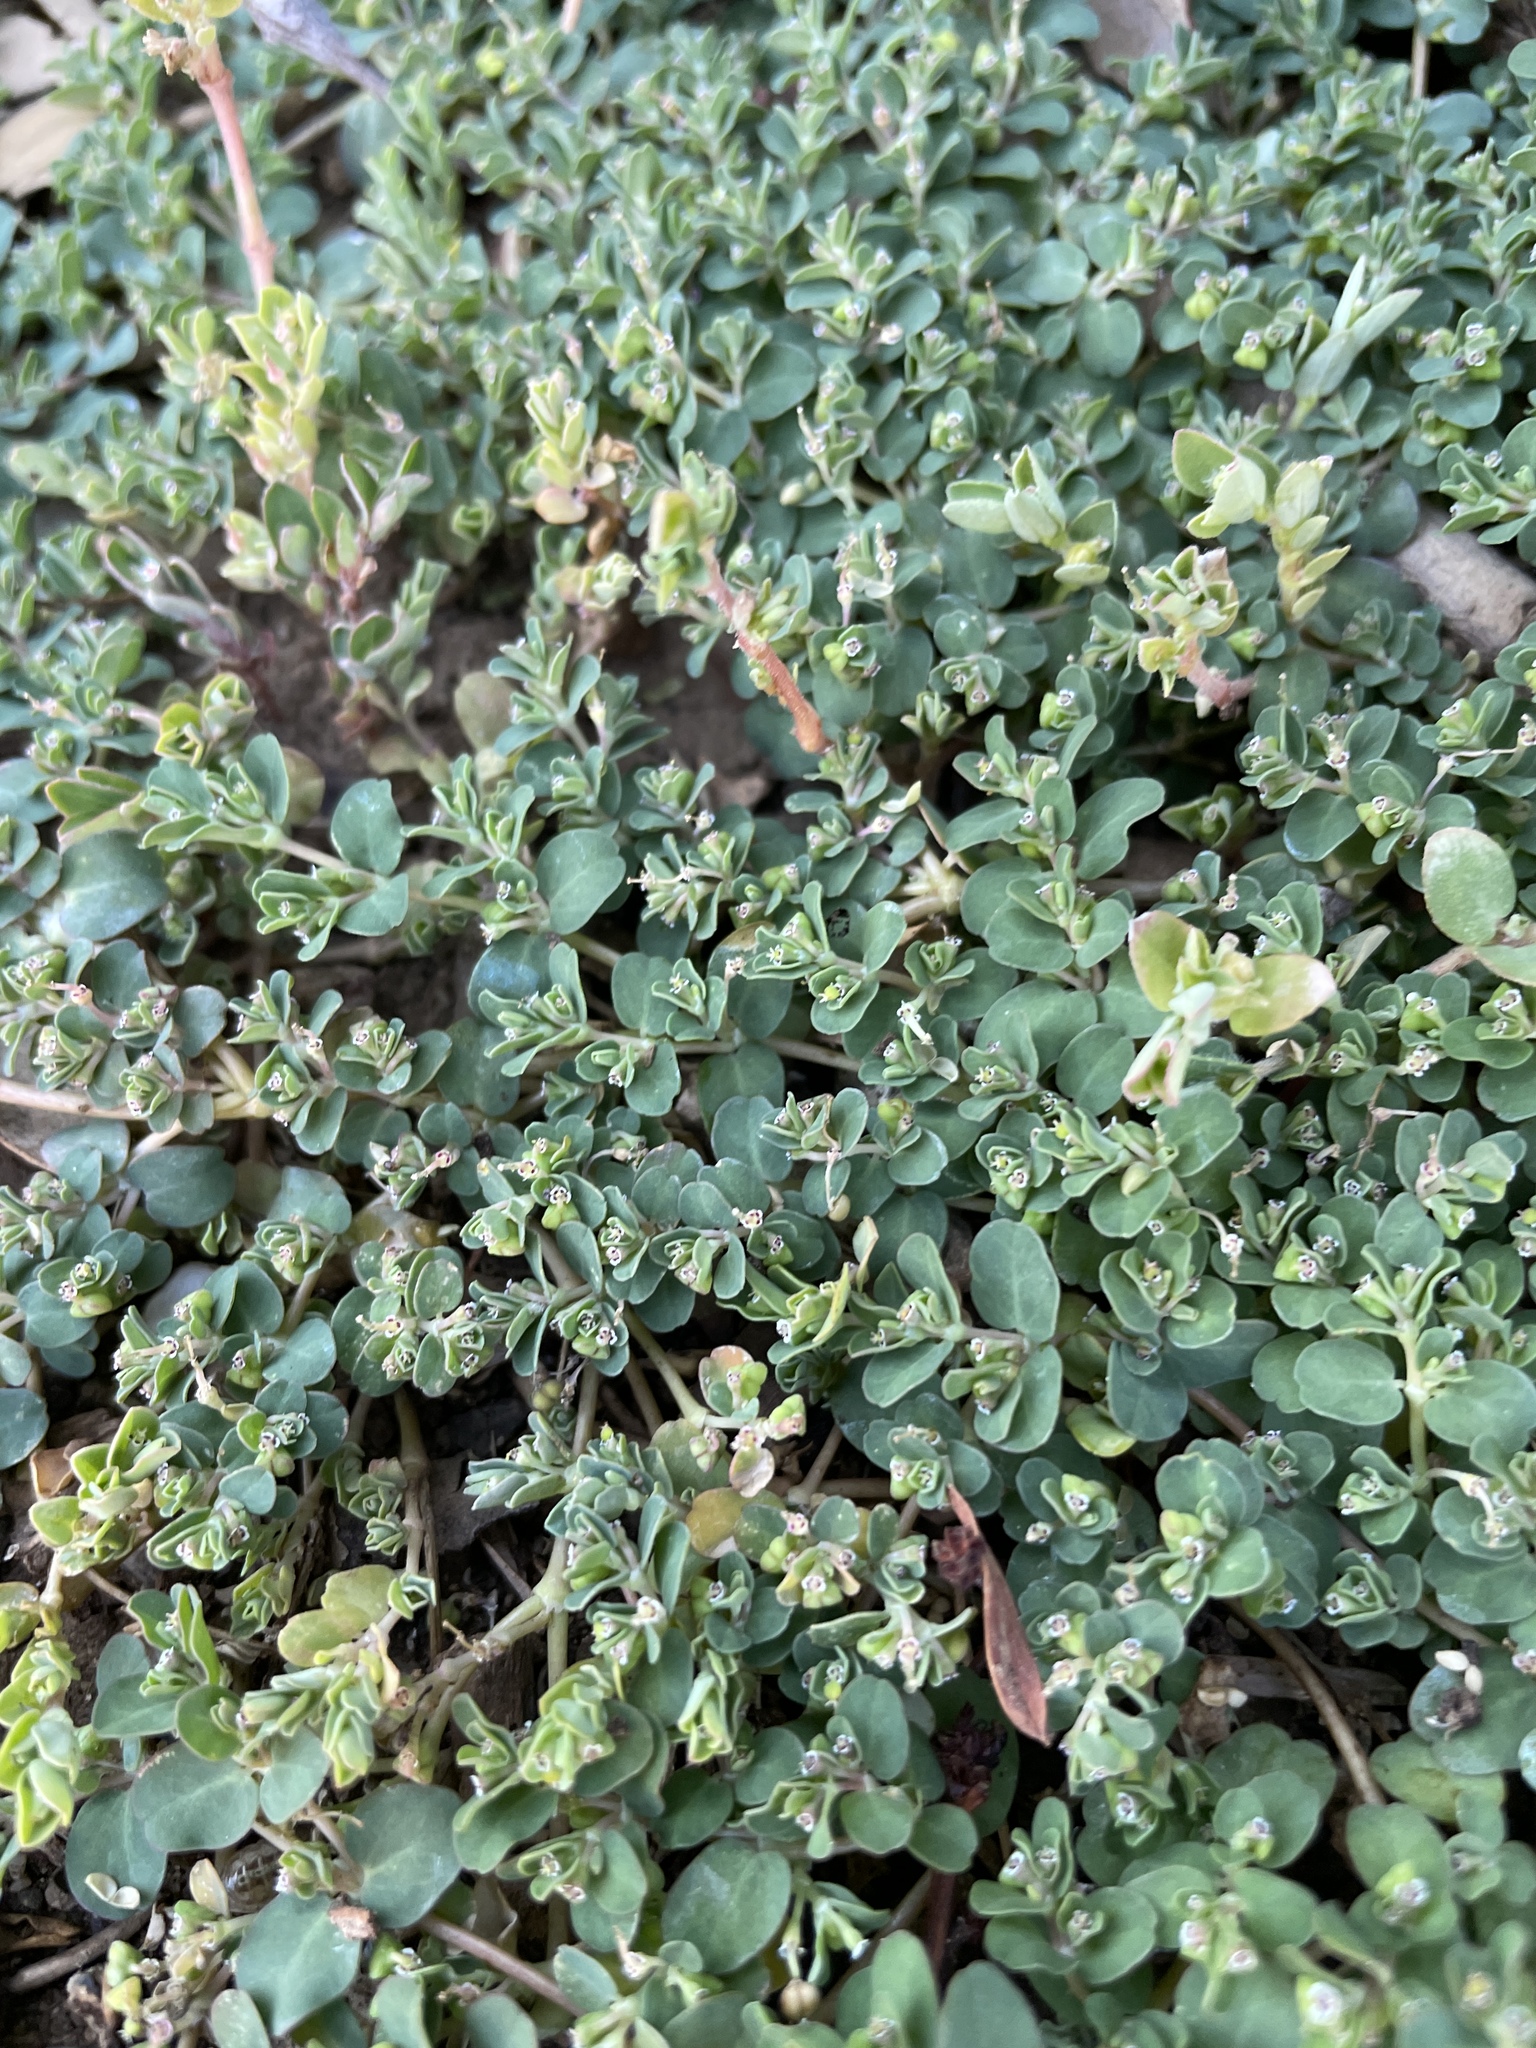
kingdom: Plantae
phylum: Tracheophyta
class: Magnoliopsida
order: Malpighiales
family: Euphorbiaceae
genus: Euphorbia
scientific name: Euphorbia serpens
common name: Matted sandmat
